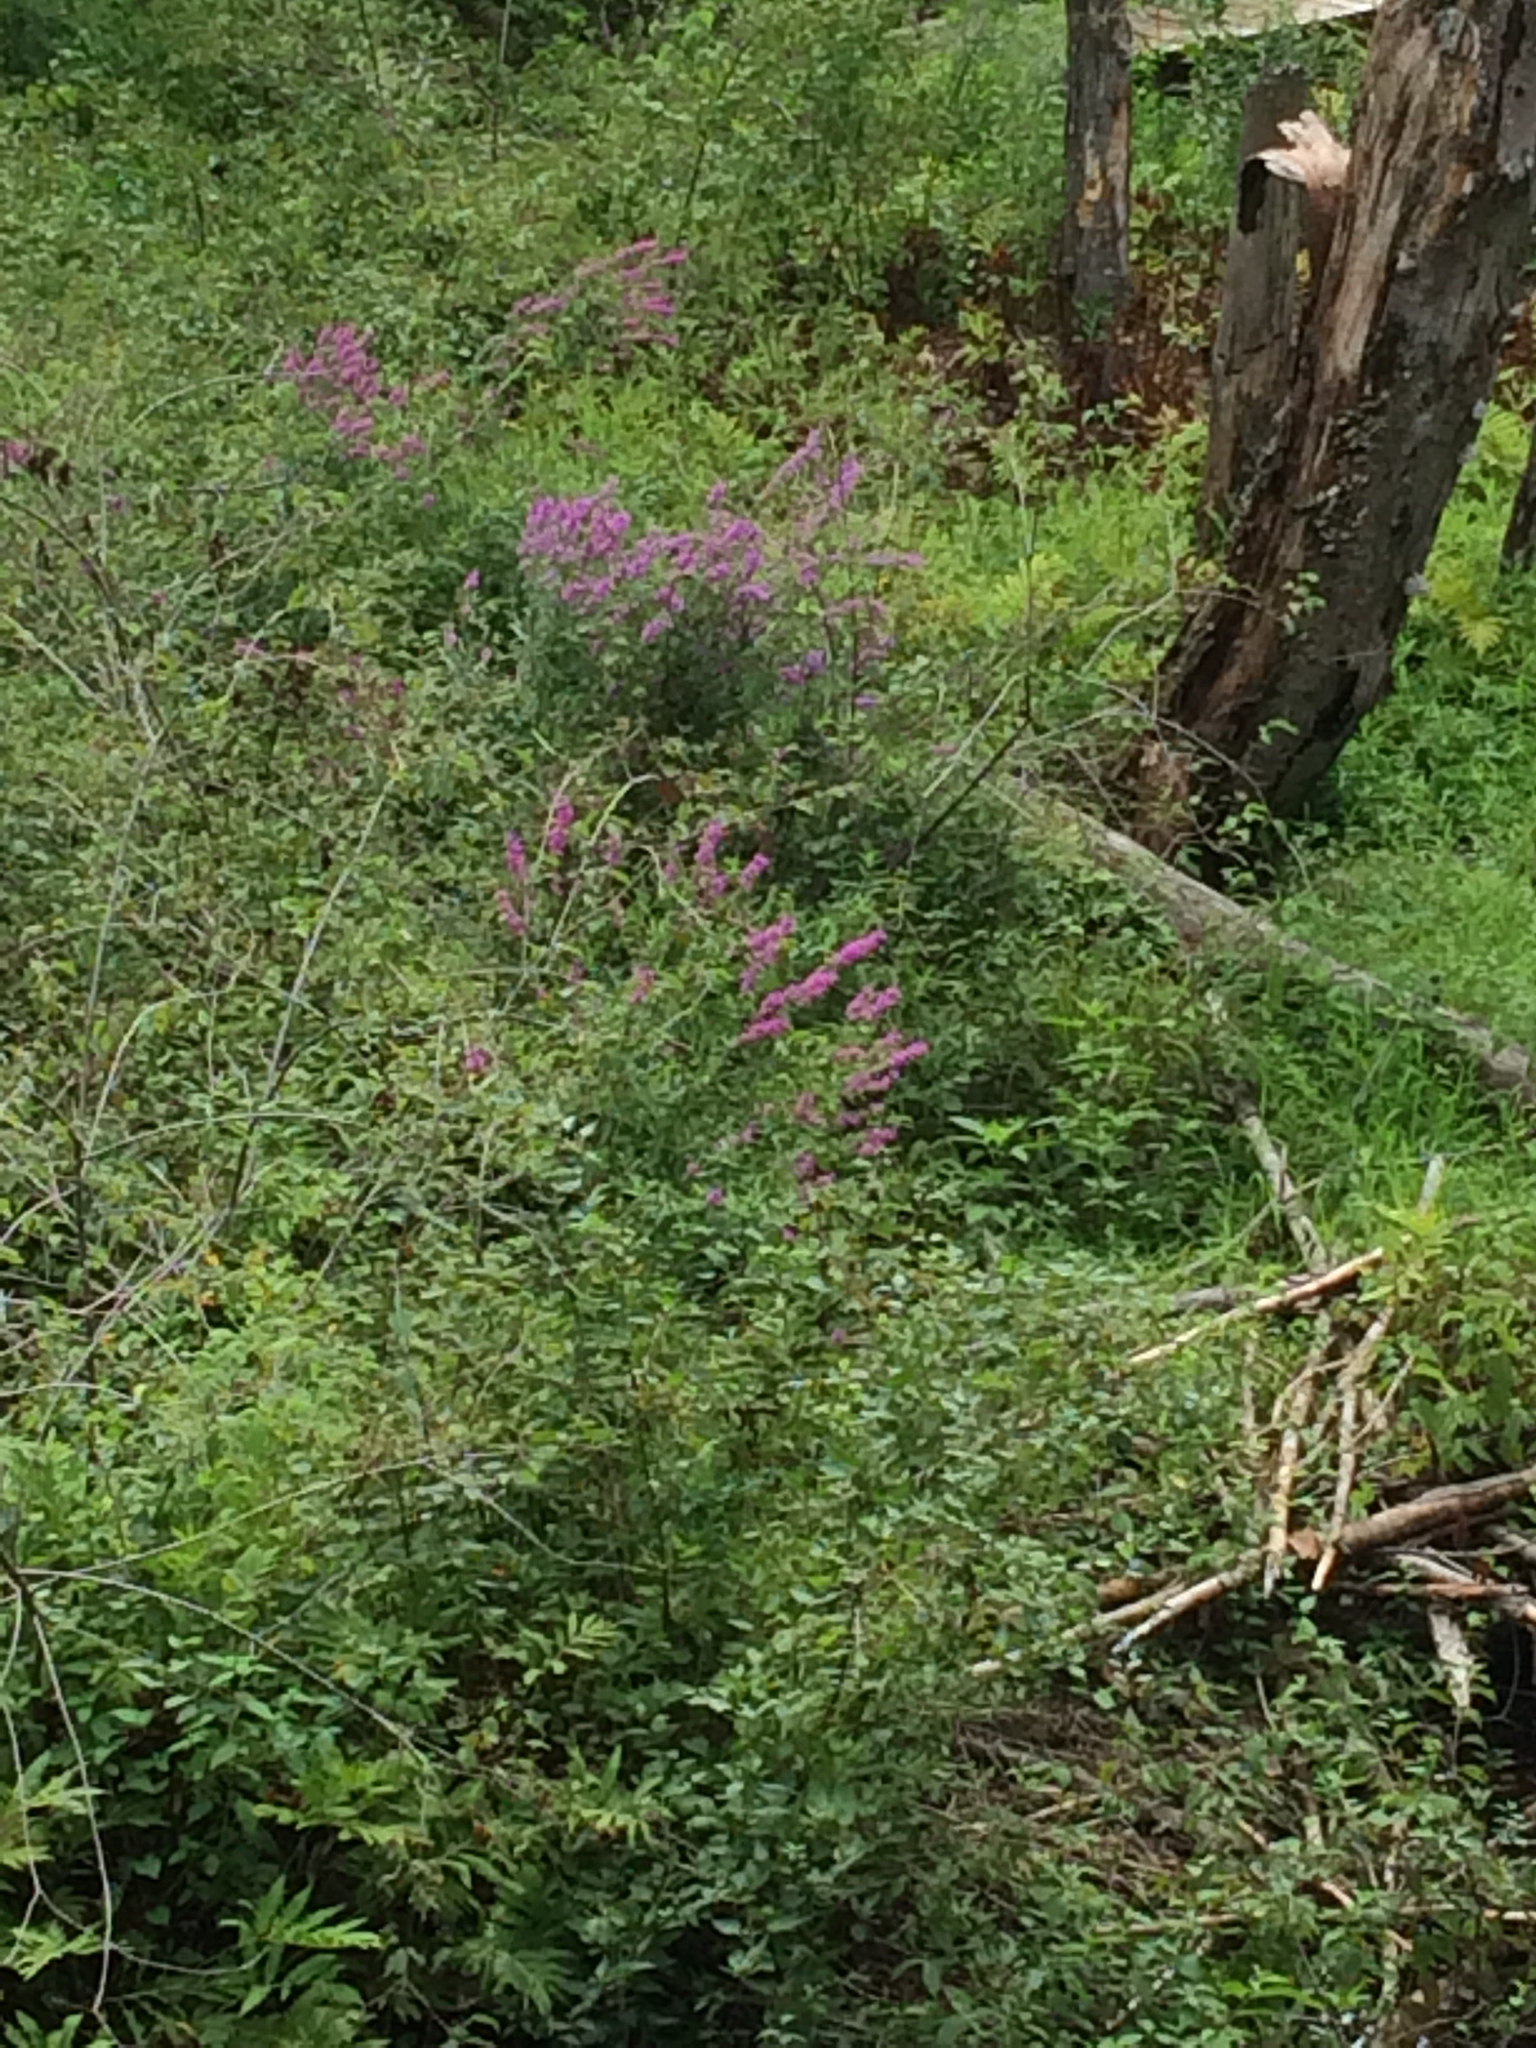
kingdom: Plantae
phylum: Tracheophyta
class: Magnoliopsida
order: Myrtales
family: Lythraceae
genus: Lythrum
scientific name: Lythrum salicaria
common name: Purple loosestrife
